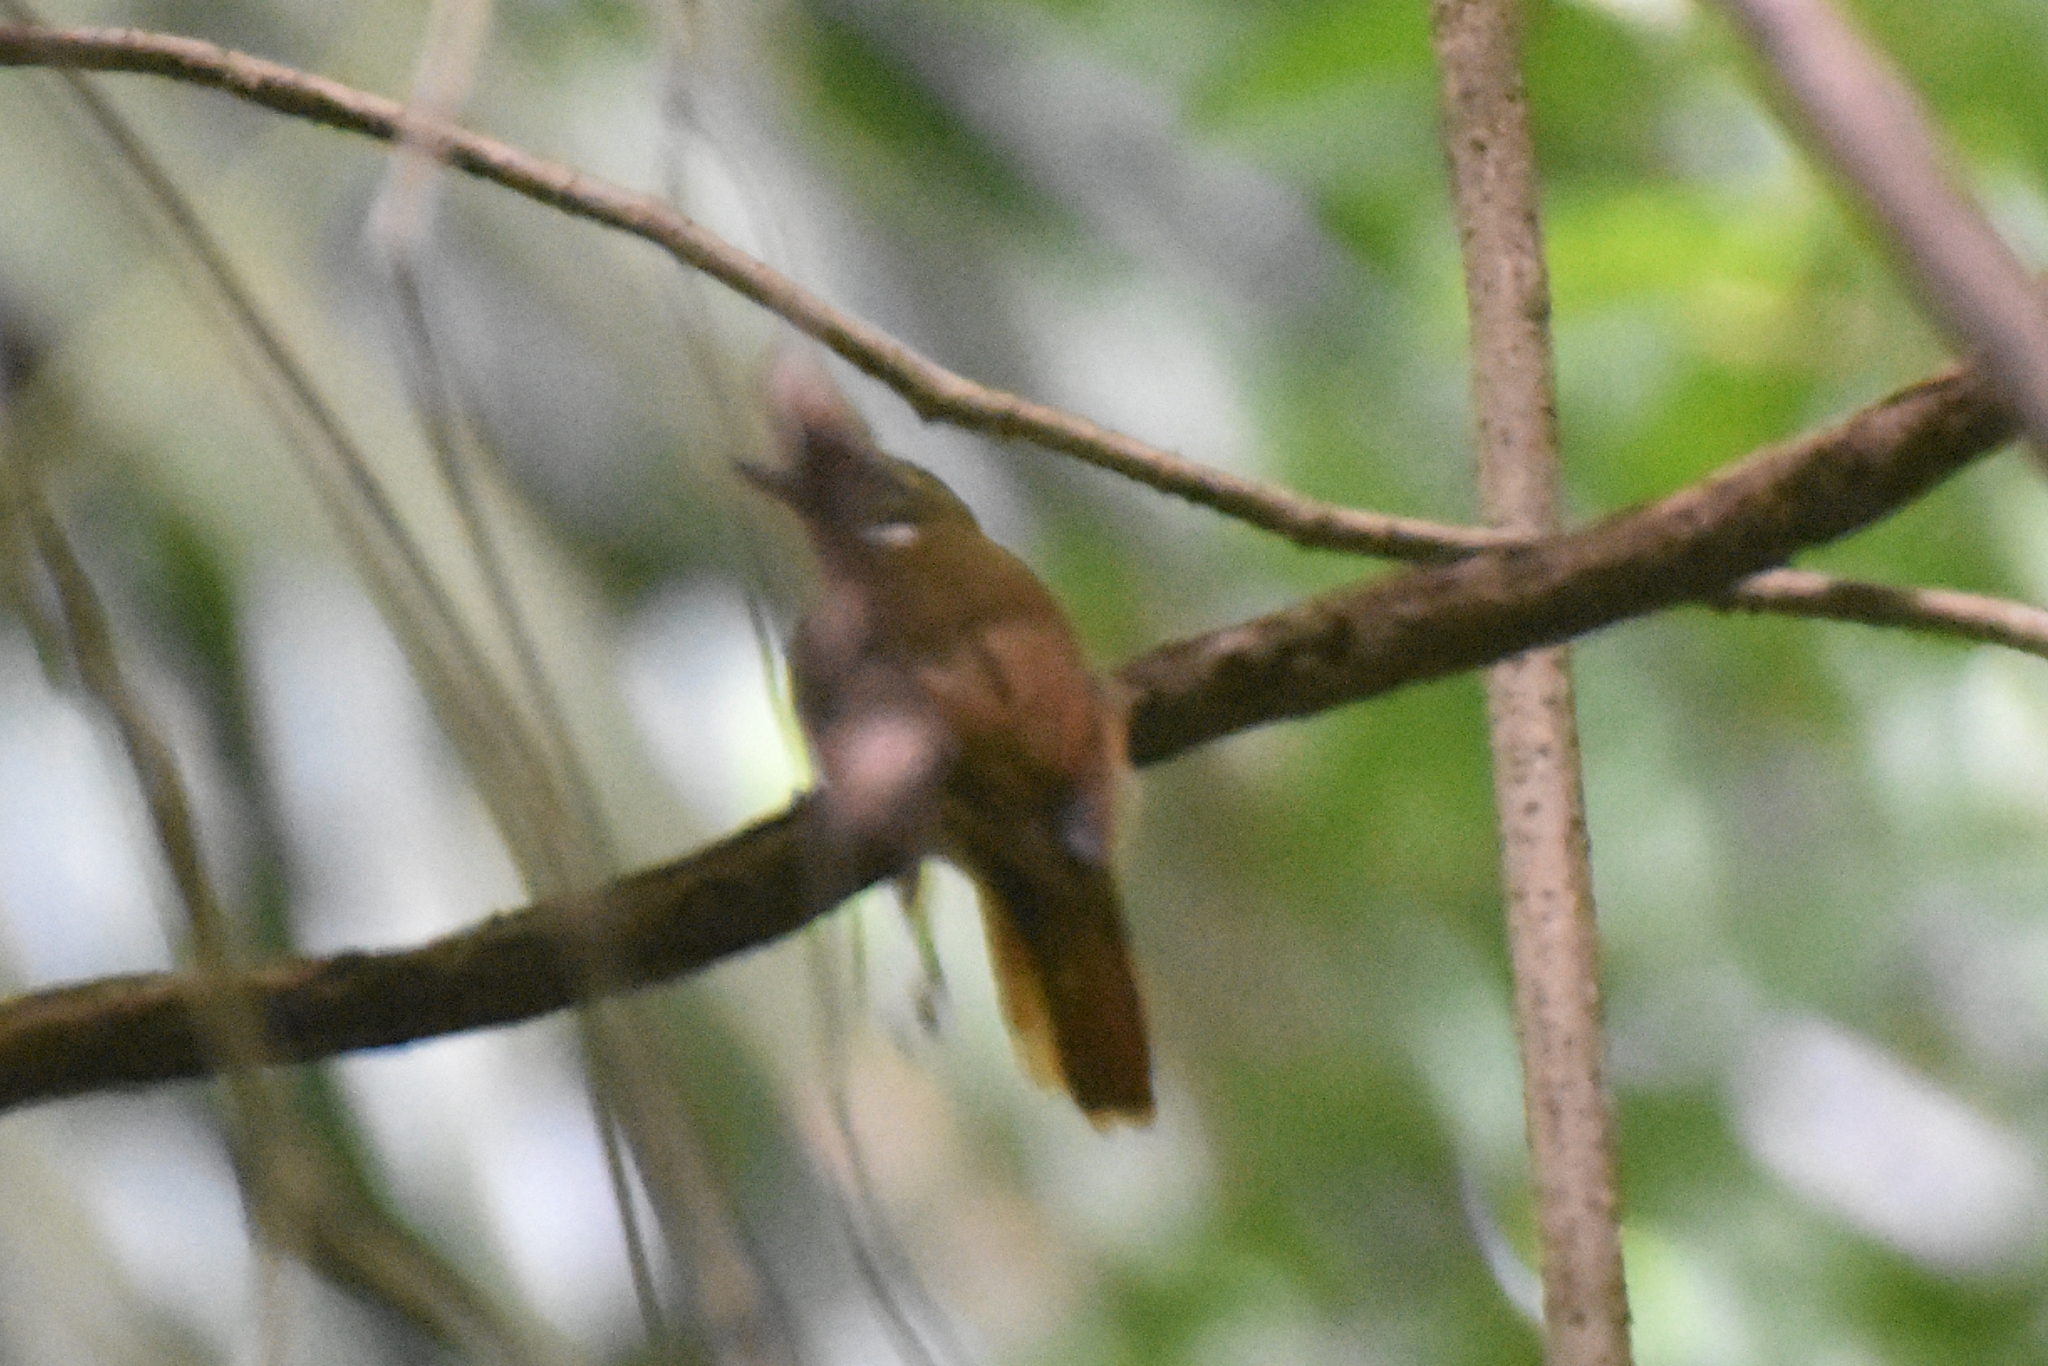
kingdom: Animalia
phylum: Chordata
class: Aves
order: Passeriformes
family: Furnariidae
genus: Xenops
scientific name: Xenops minutus
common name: Plain xenops
